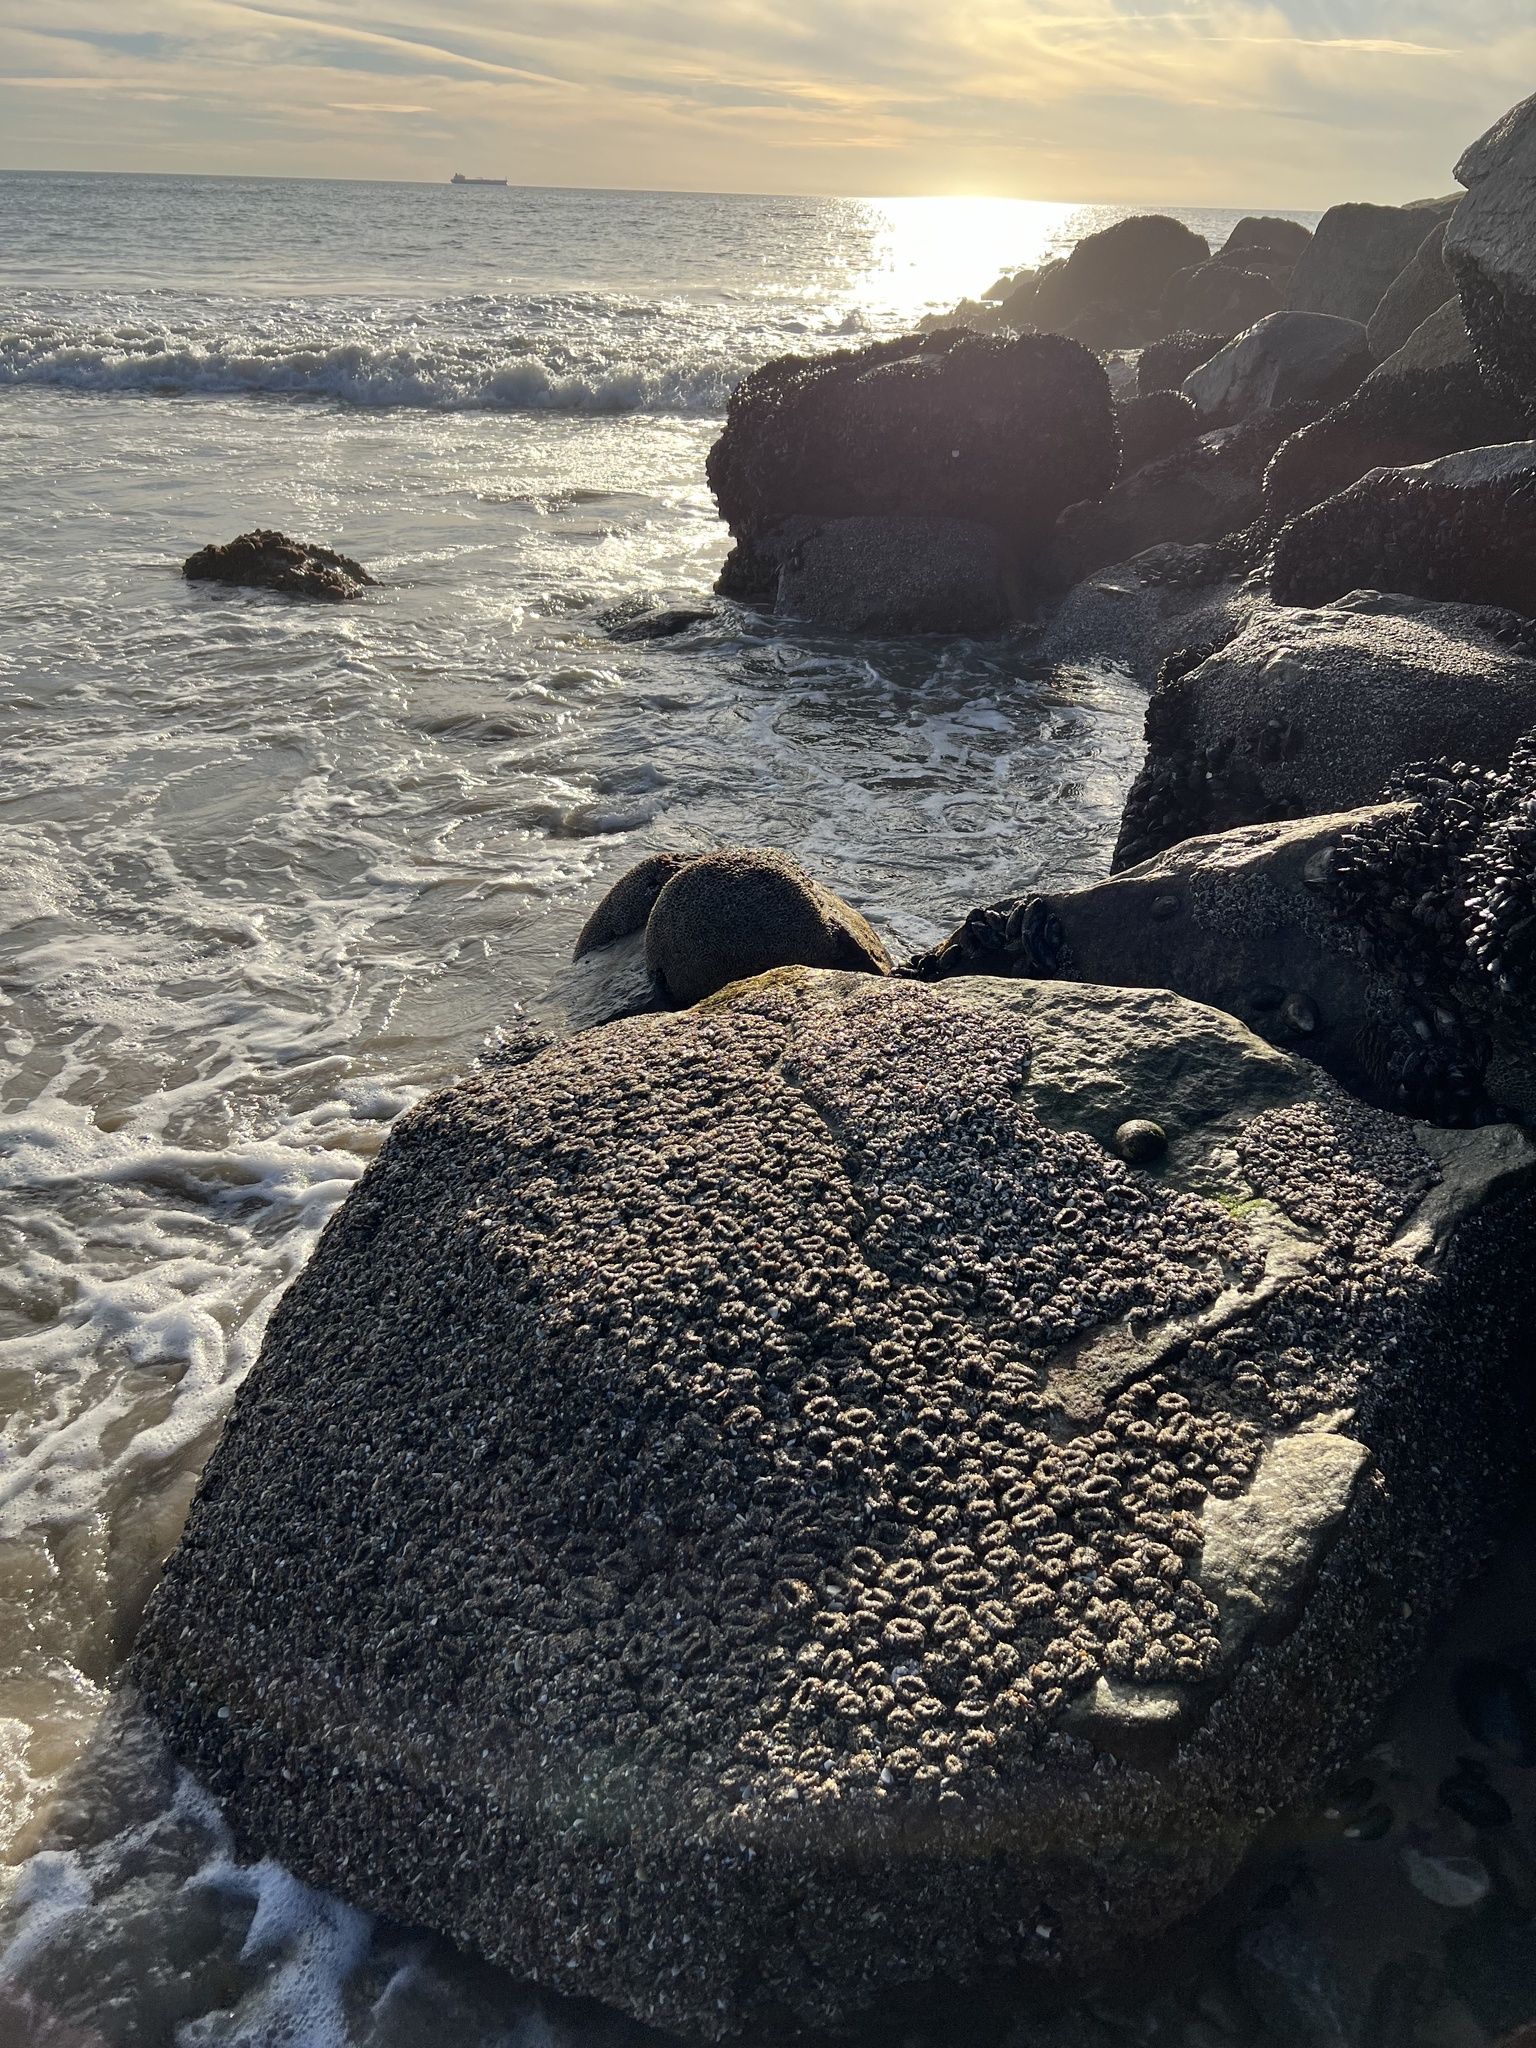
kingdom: Animalia
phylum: Cnidaria
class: Anthozoa
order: Actiniaria
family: Actiniidae
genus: Anthopleura
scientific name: Anthopleura elegantissima
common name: Clonal anemone
